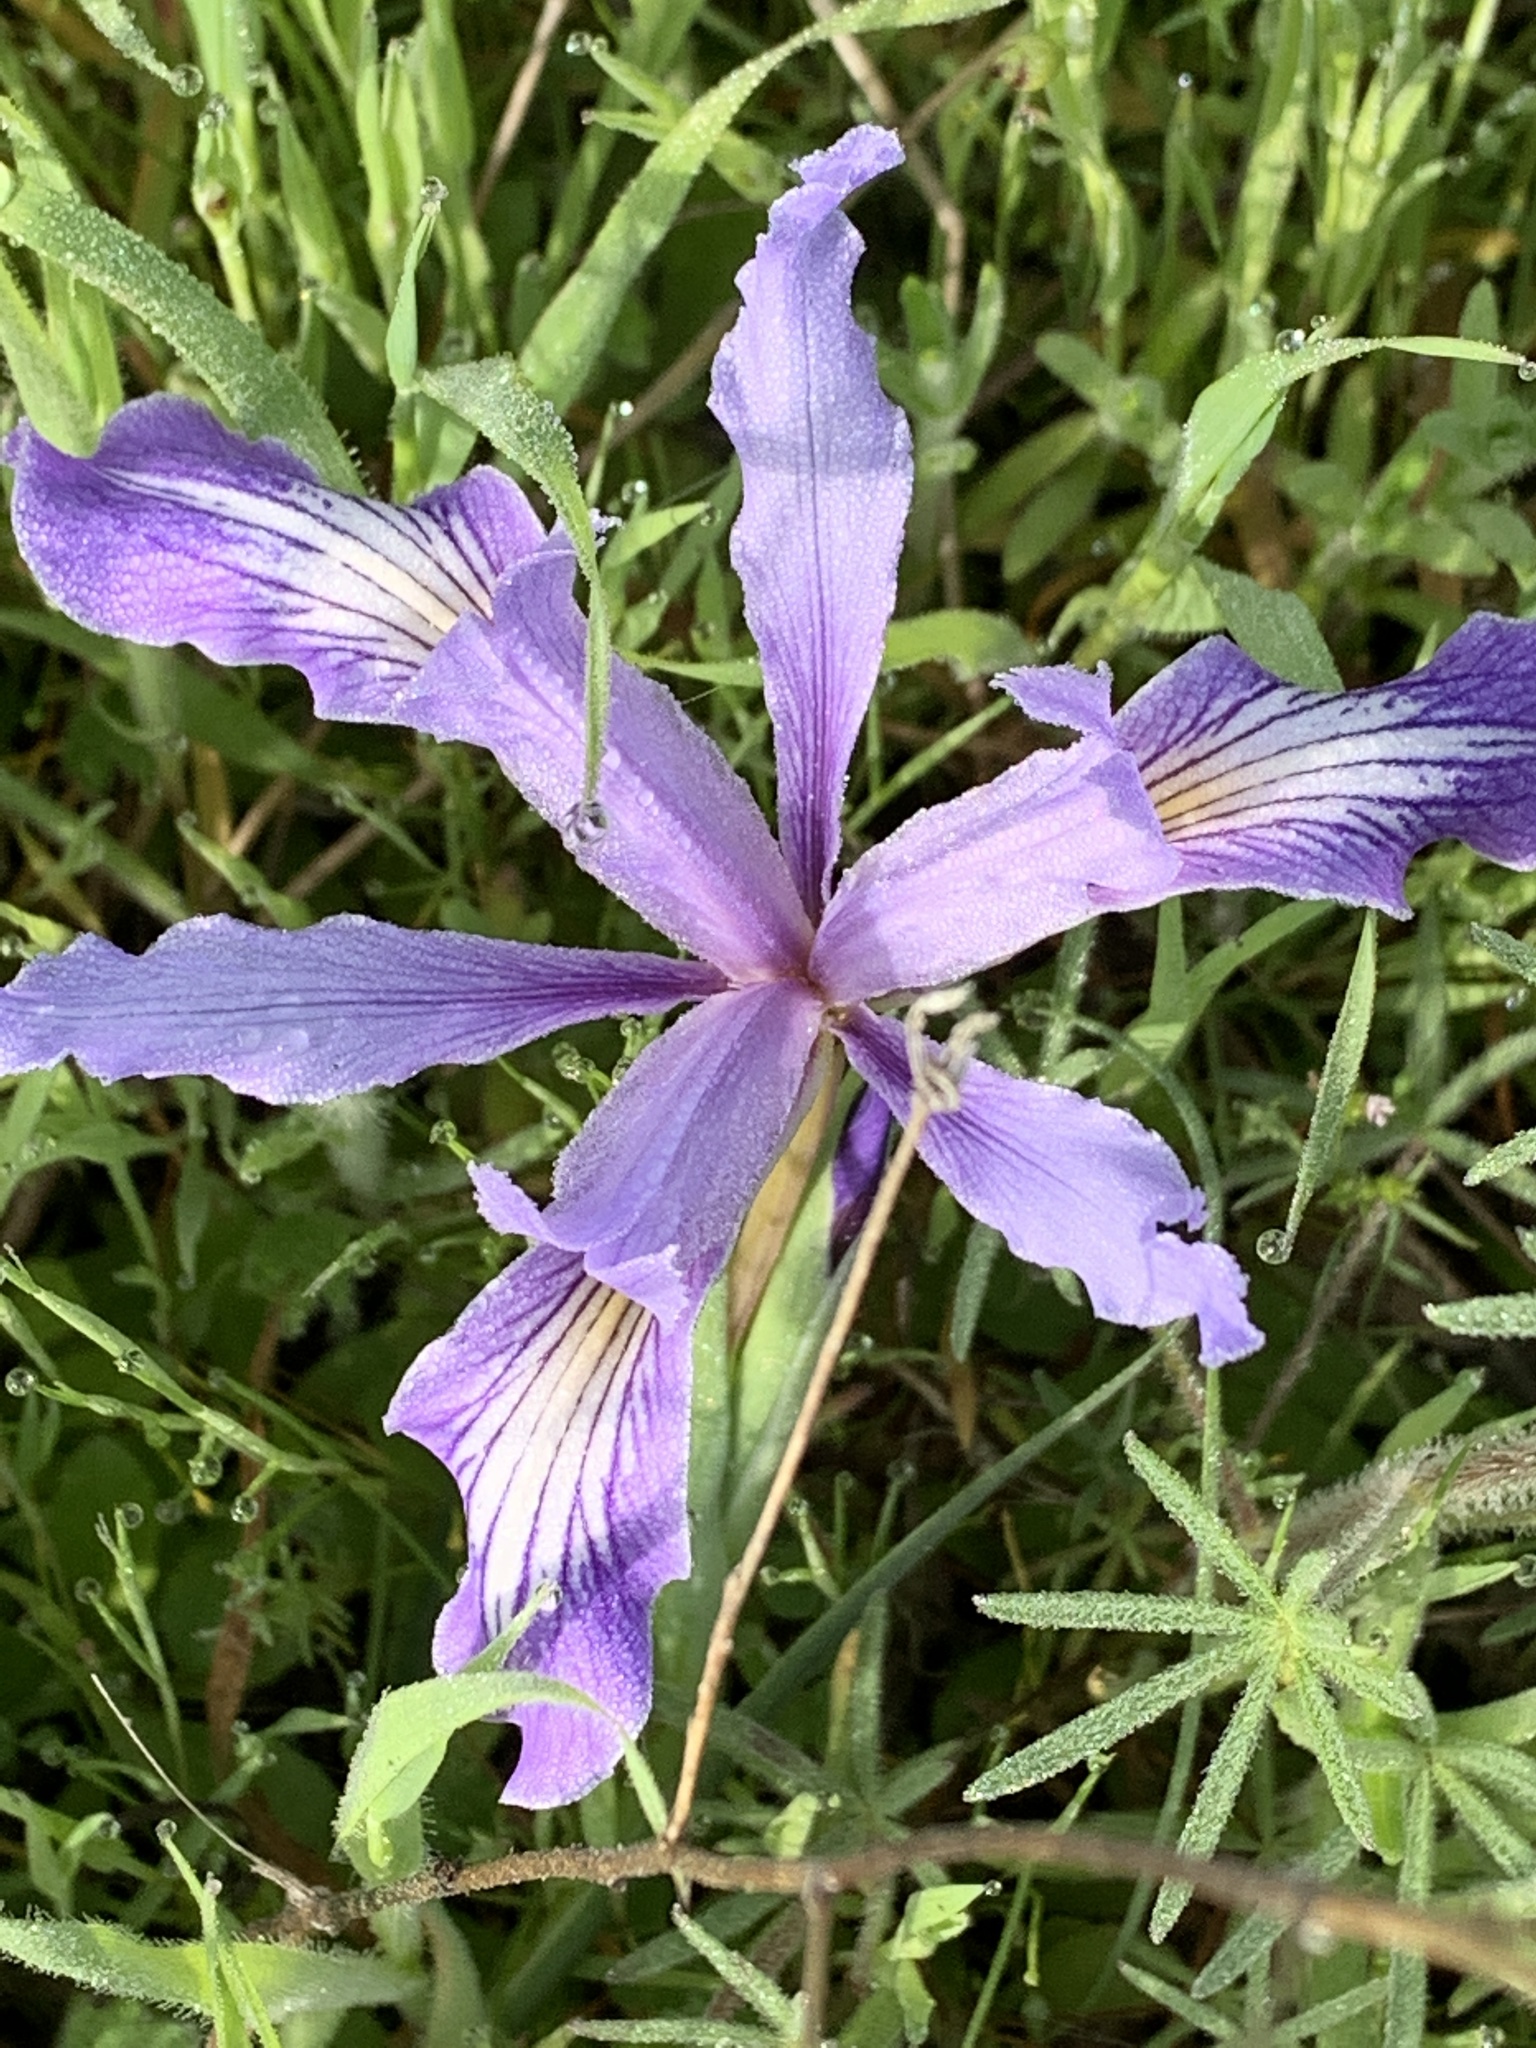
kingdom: Plantae
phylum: Tracheophyta
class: Liliopsida
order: Asparagales
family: Iridaceae
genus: Iris
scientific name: Iris macrosiphon
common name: Ground iris
